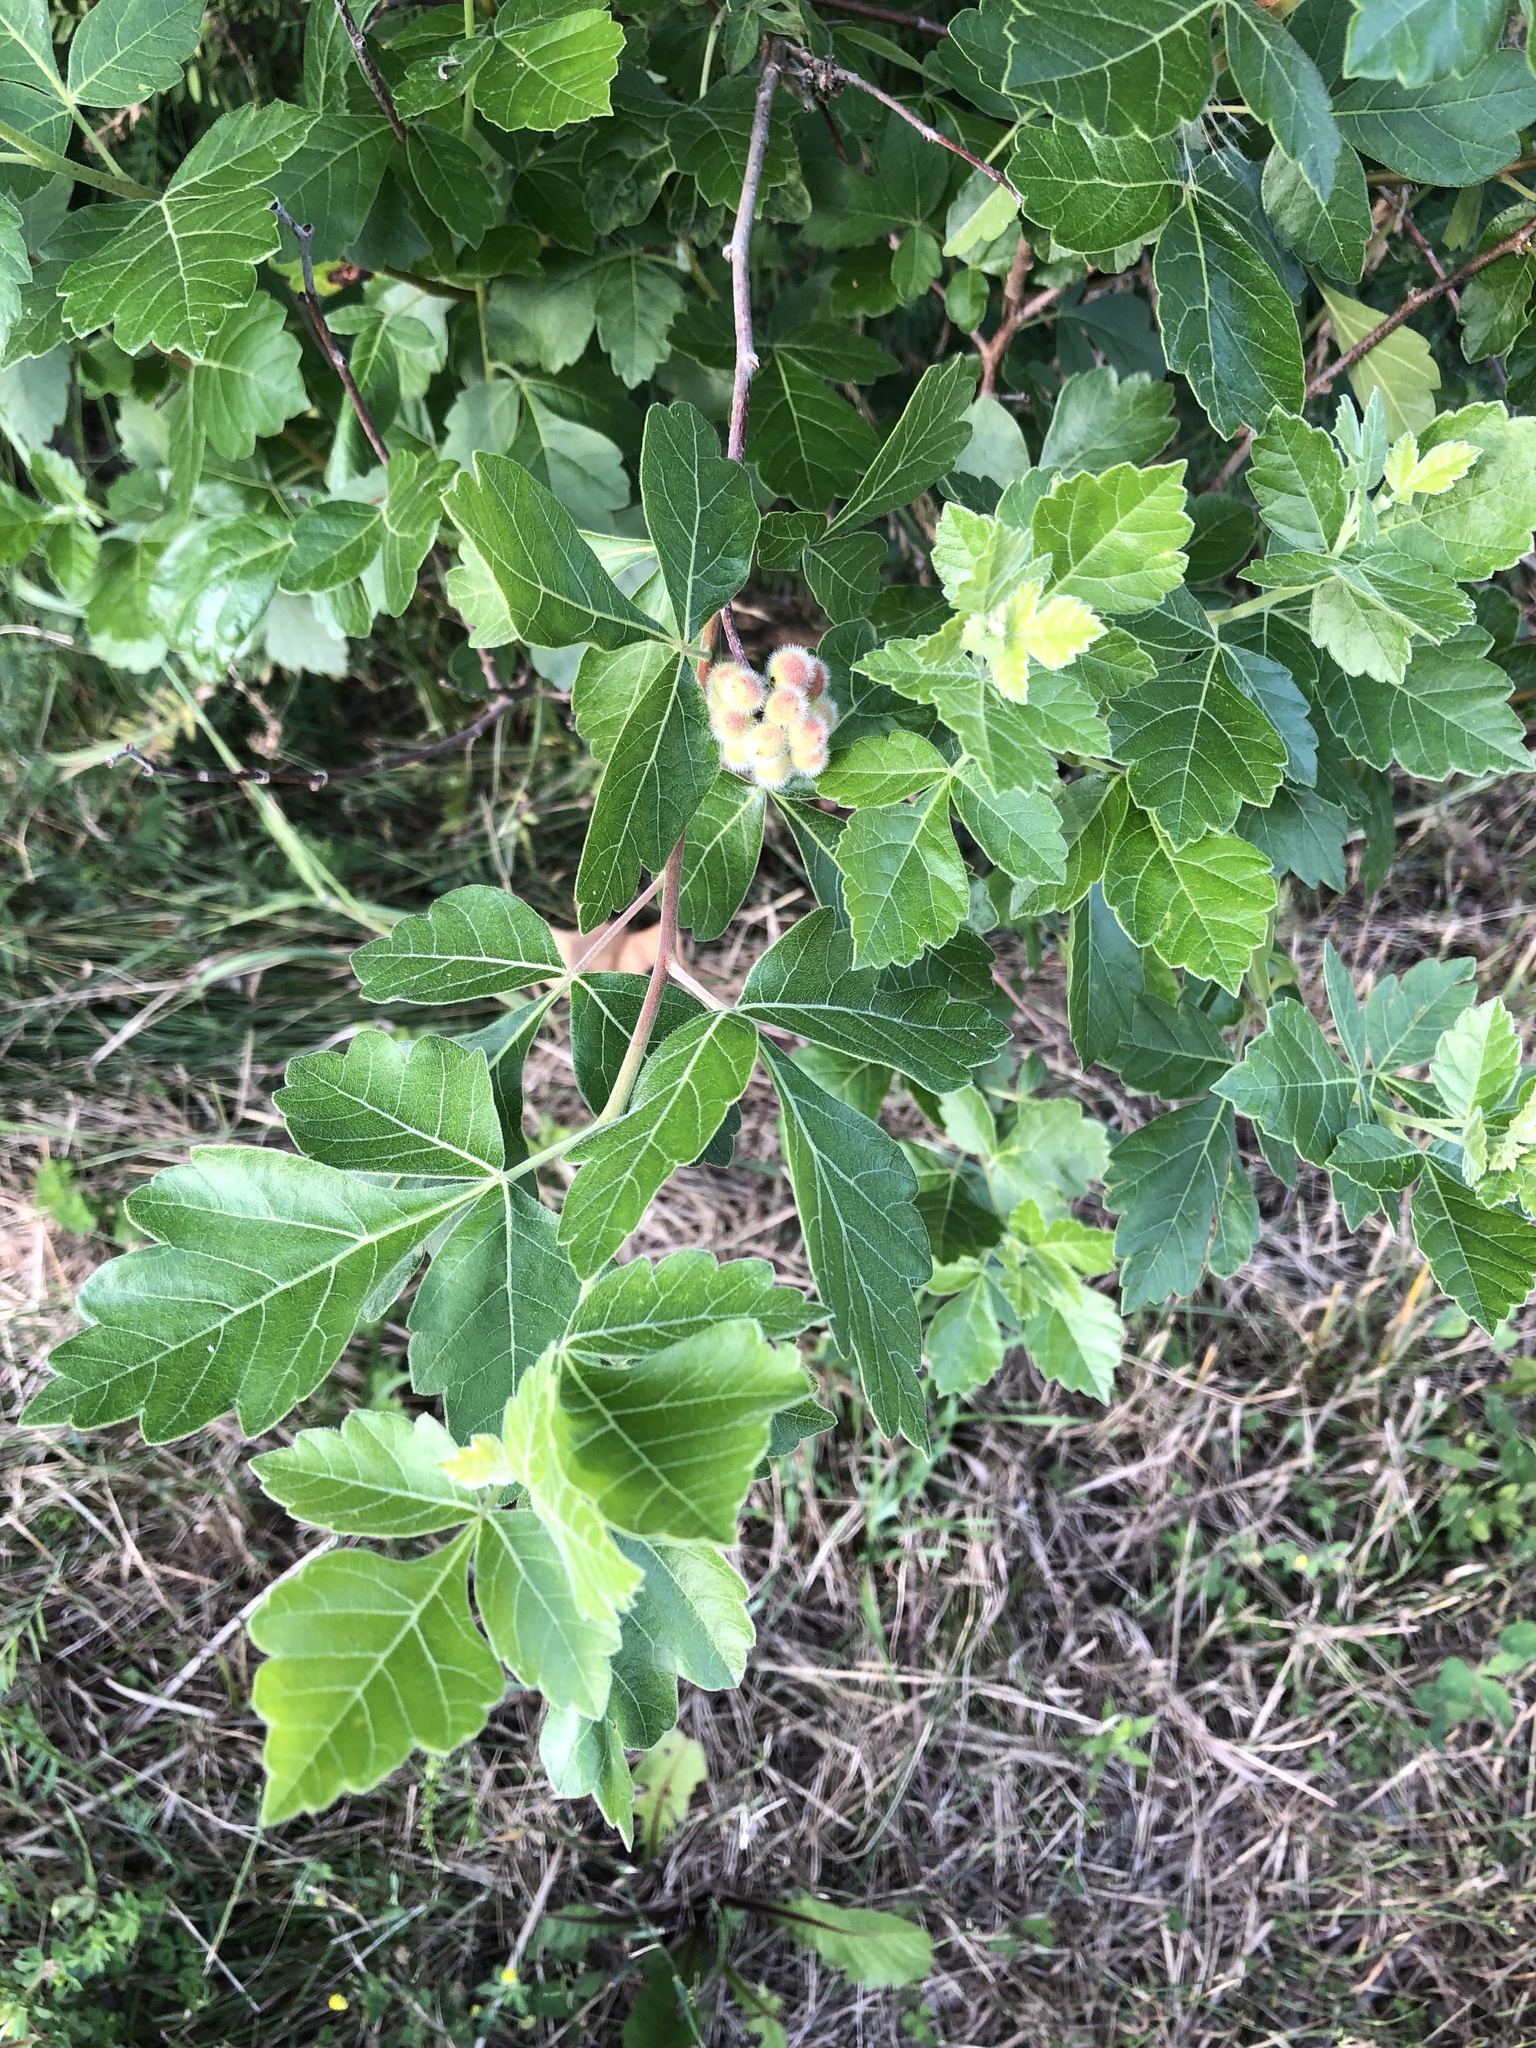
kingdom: Plantae
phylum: Tracheophyta
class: Magnoliopsida
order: Sapindales
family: Anacardiaceae
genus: Rhus
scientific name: Rhus aromatica
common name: Aromatic sumac
